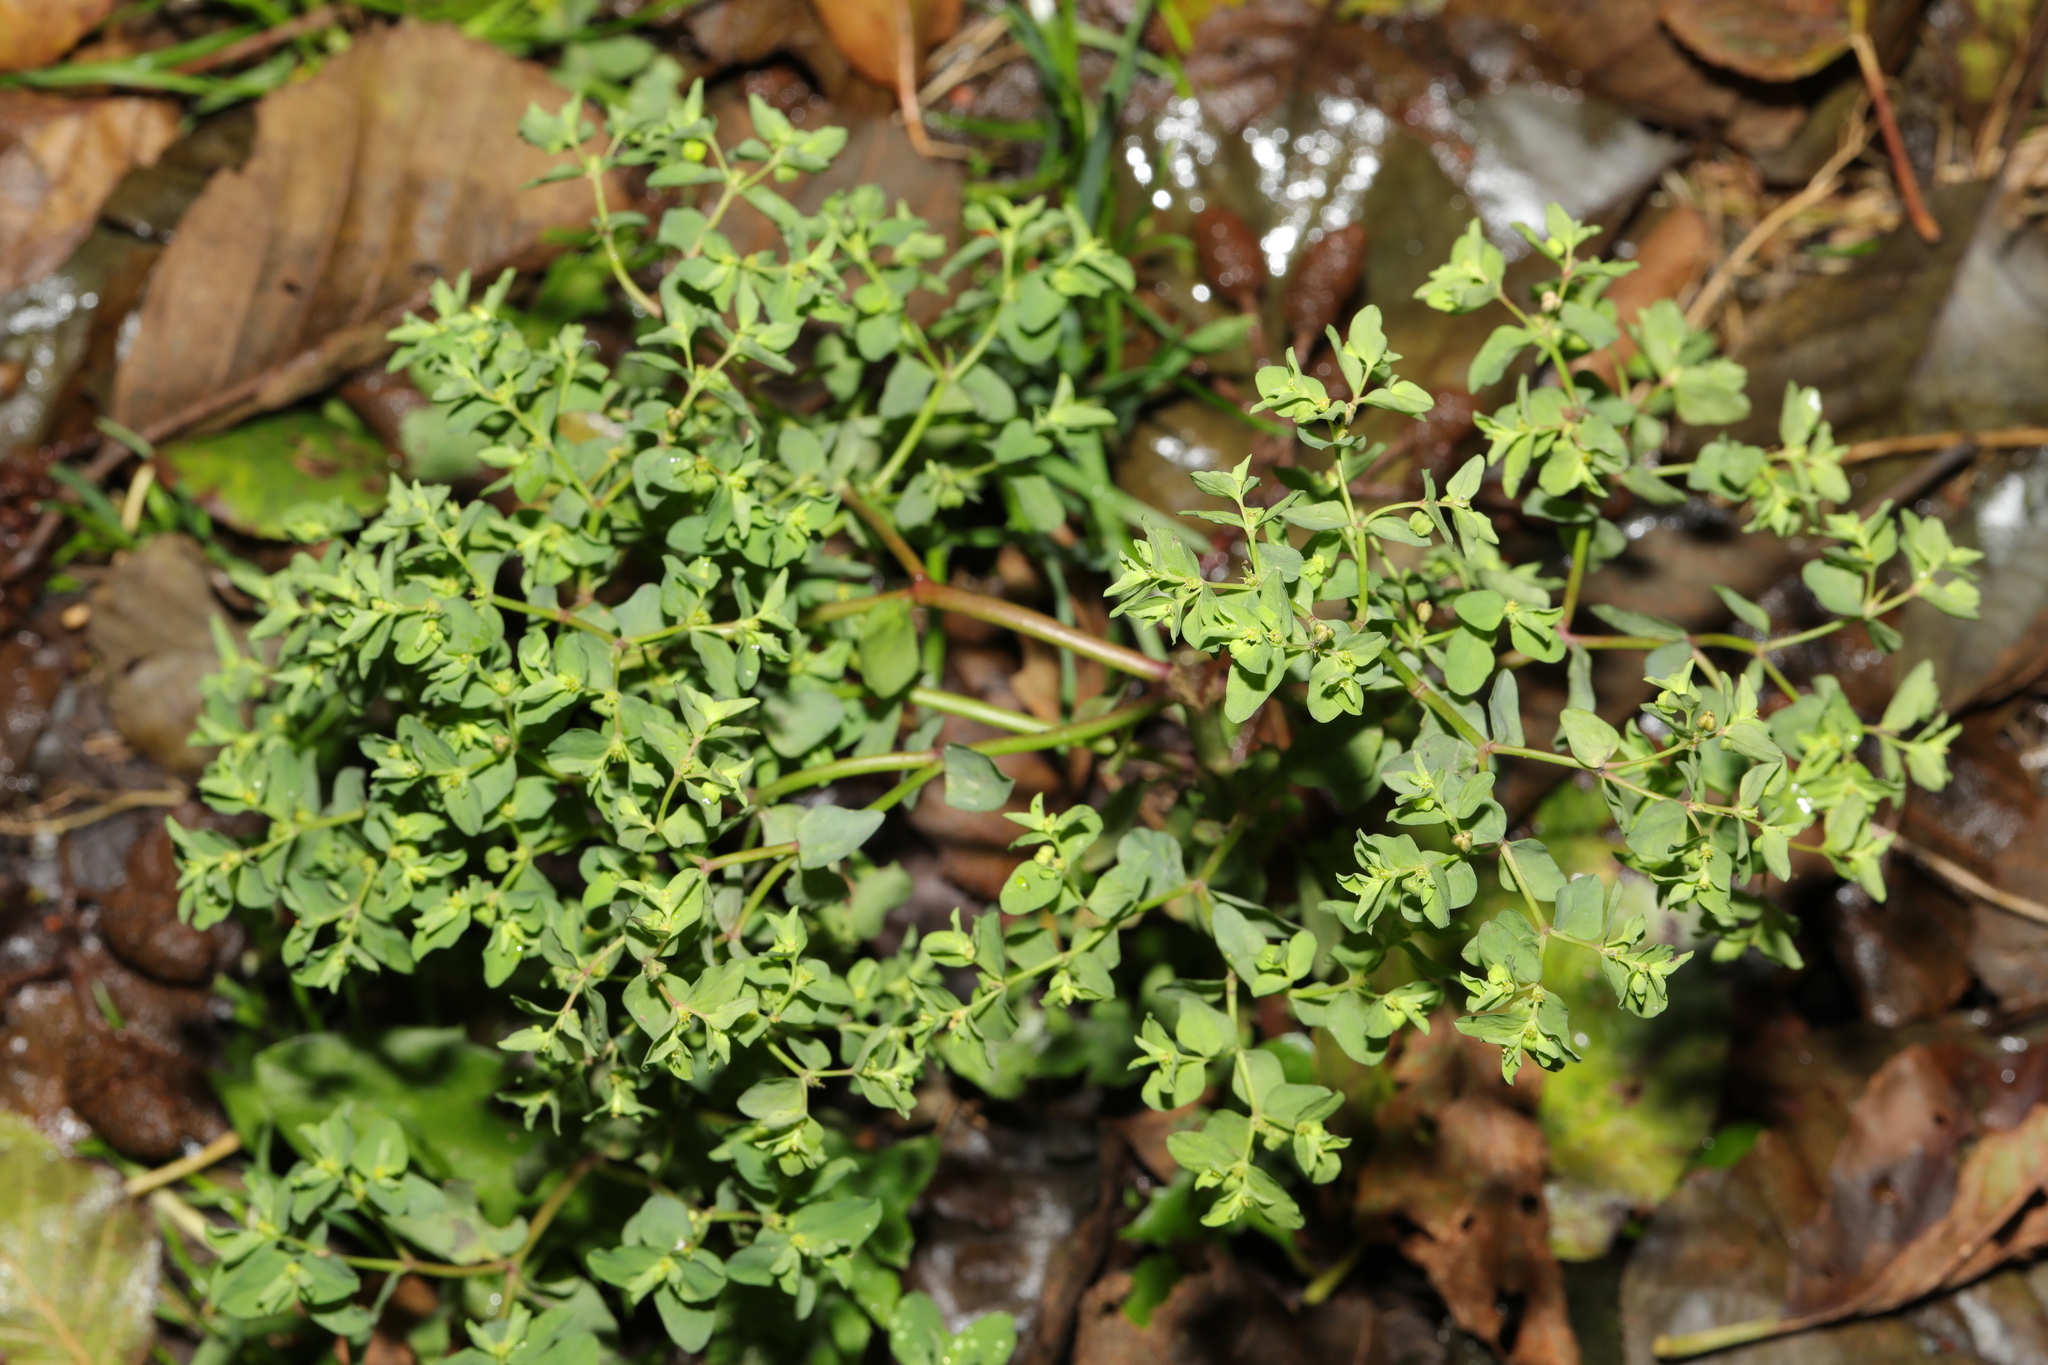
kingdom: Plantae
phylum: Tracheophyta
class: Magnoliopsida
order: Malpighiales
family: Euphorbiaceae
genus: Euphorbia
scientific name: Euphorbia peplus
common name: Petty spurge
